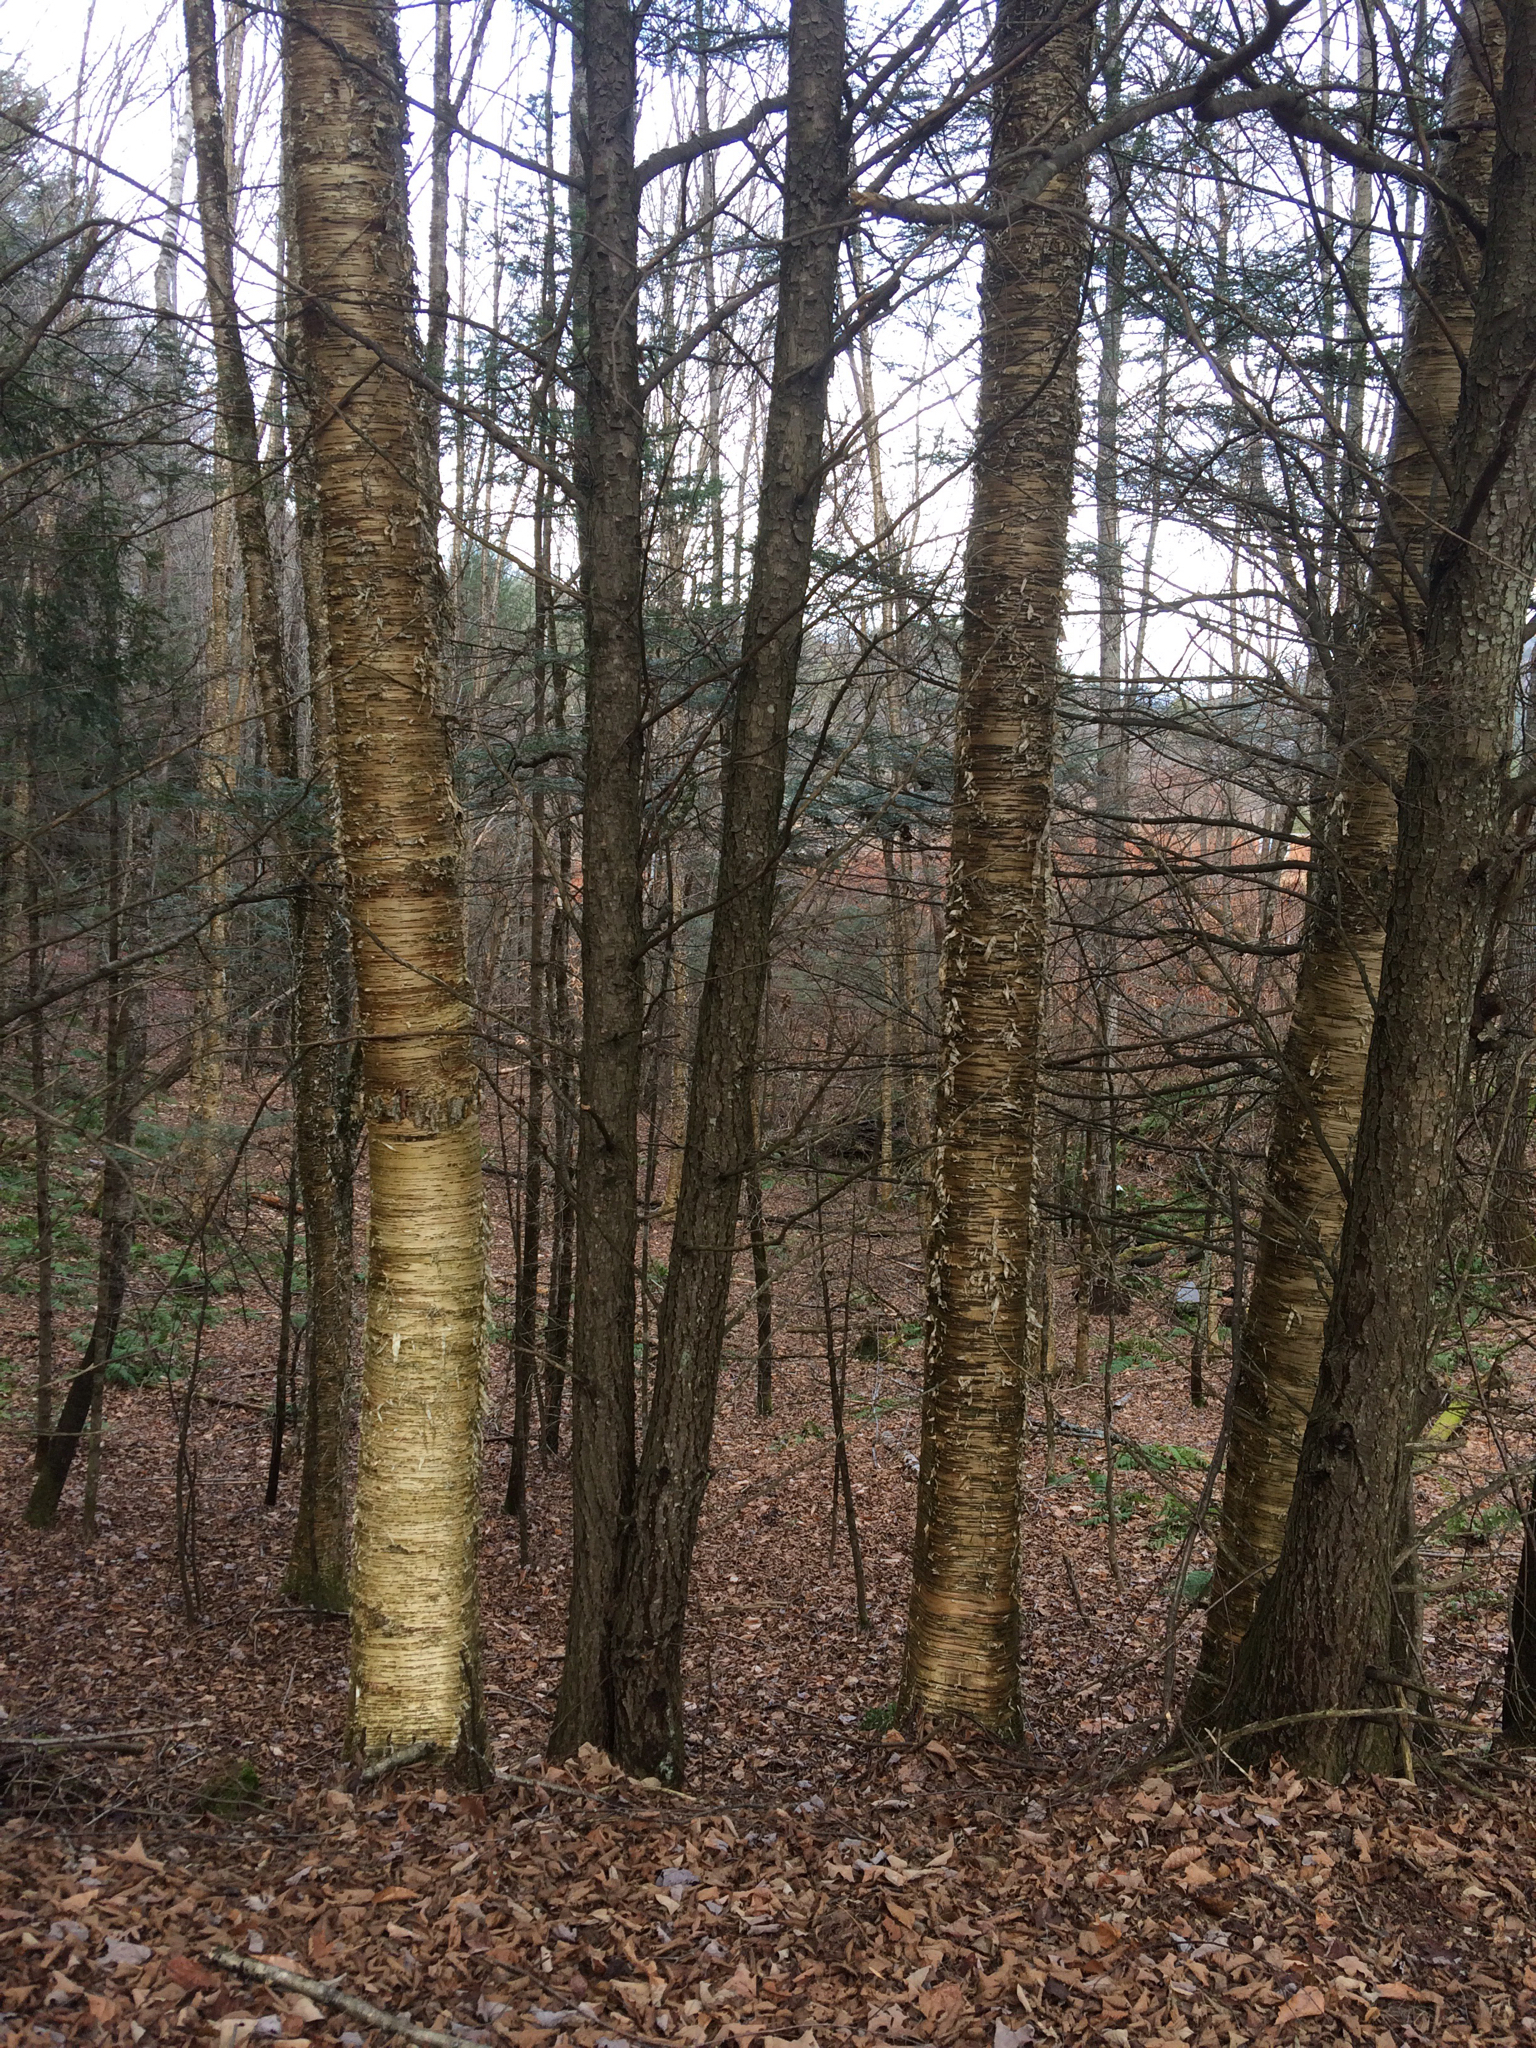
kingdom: Plantae
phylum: Tracheophyta
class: Magnoliopsida
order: Fagales
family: Betulaceae
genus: Betula
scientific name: Betula alleghaniensis
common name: Yellow birch
